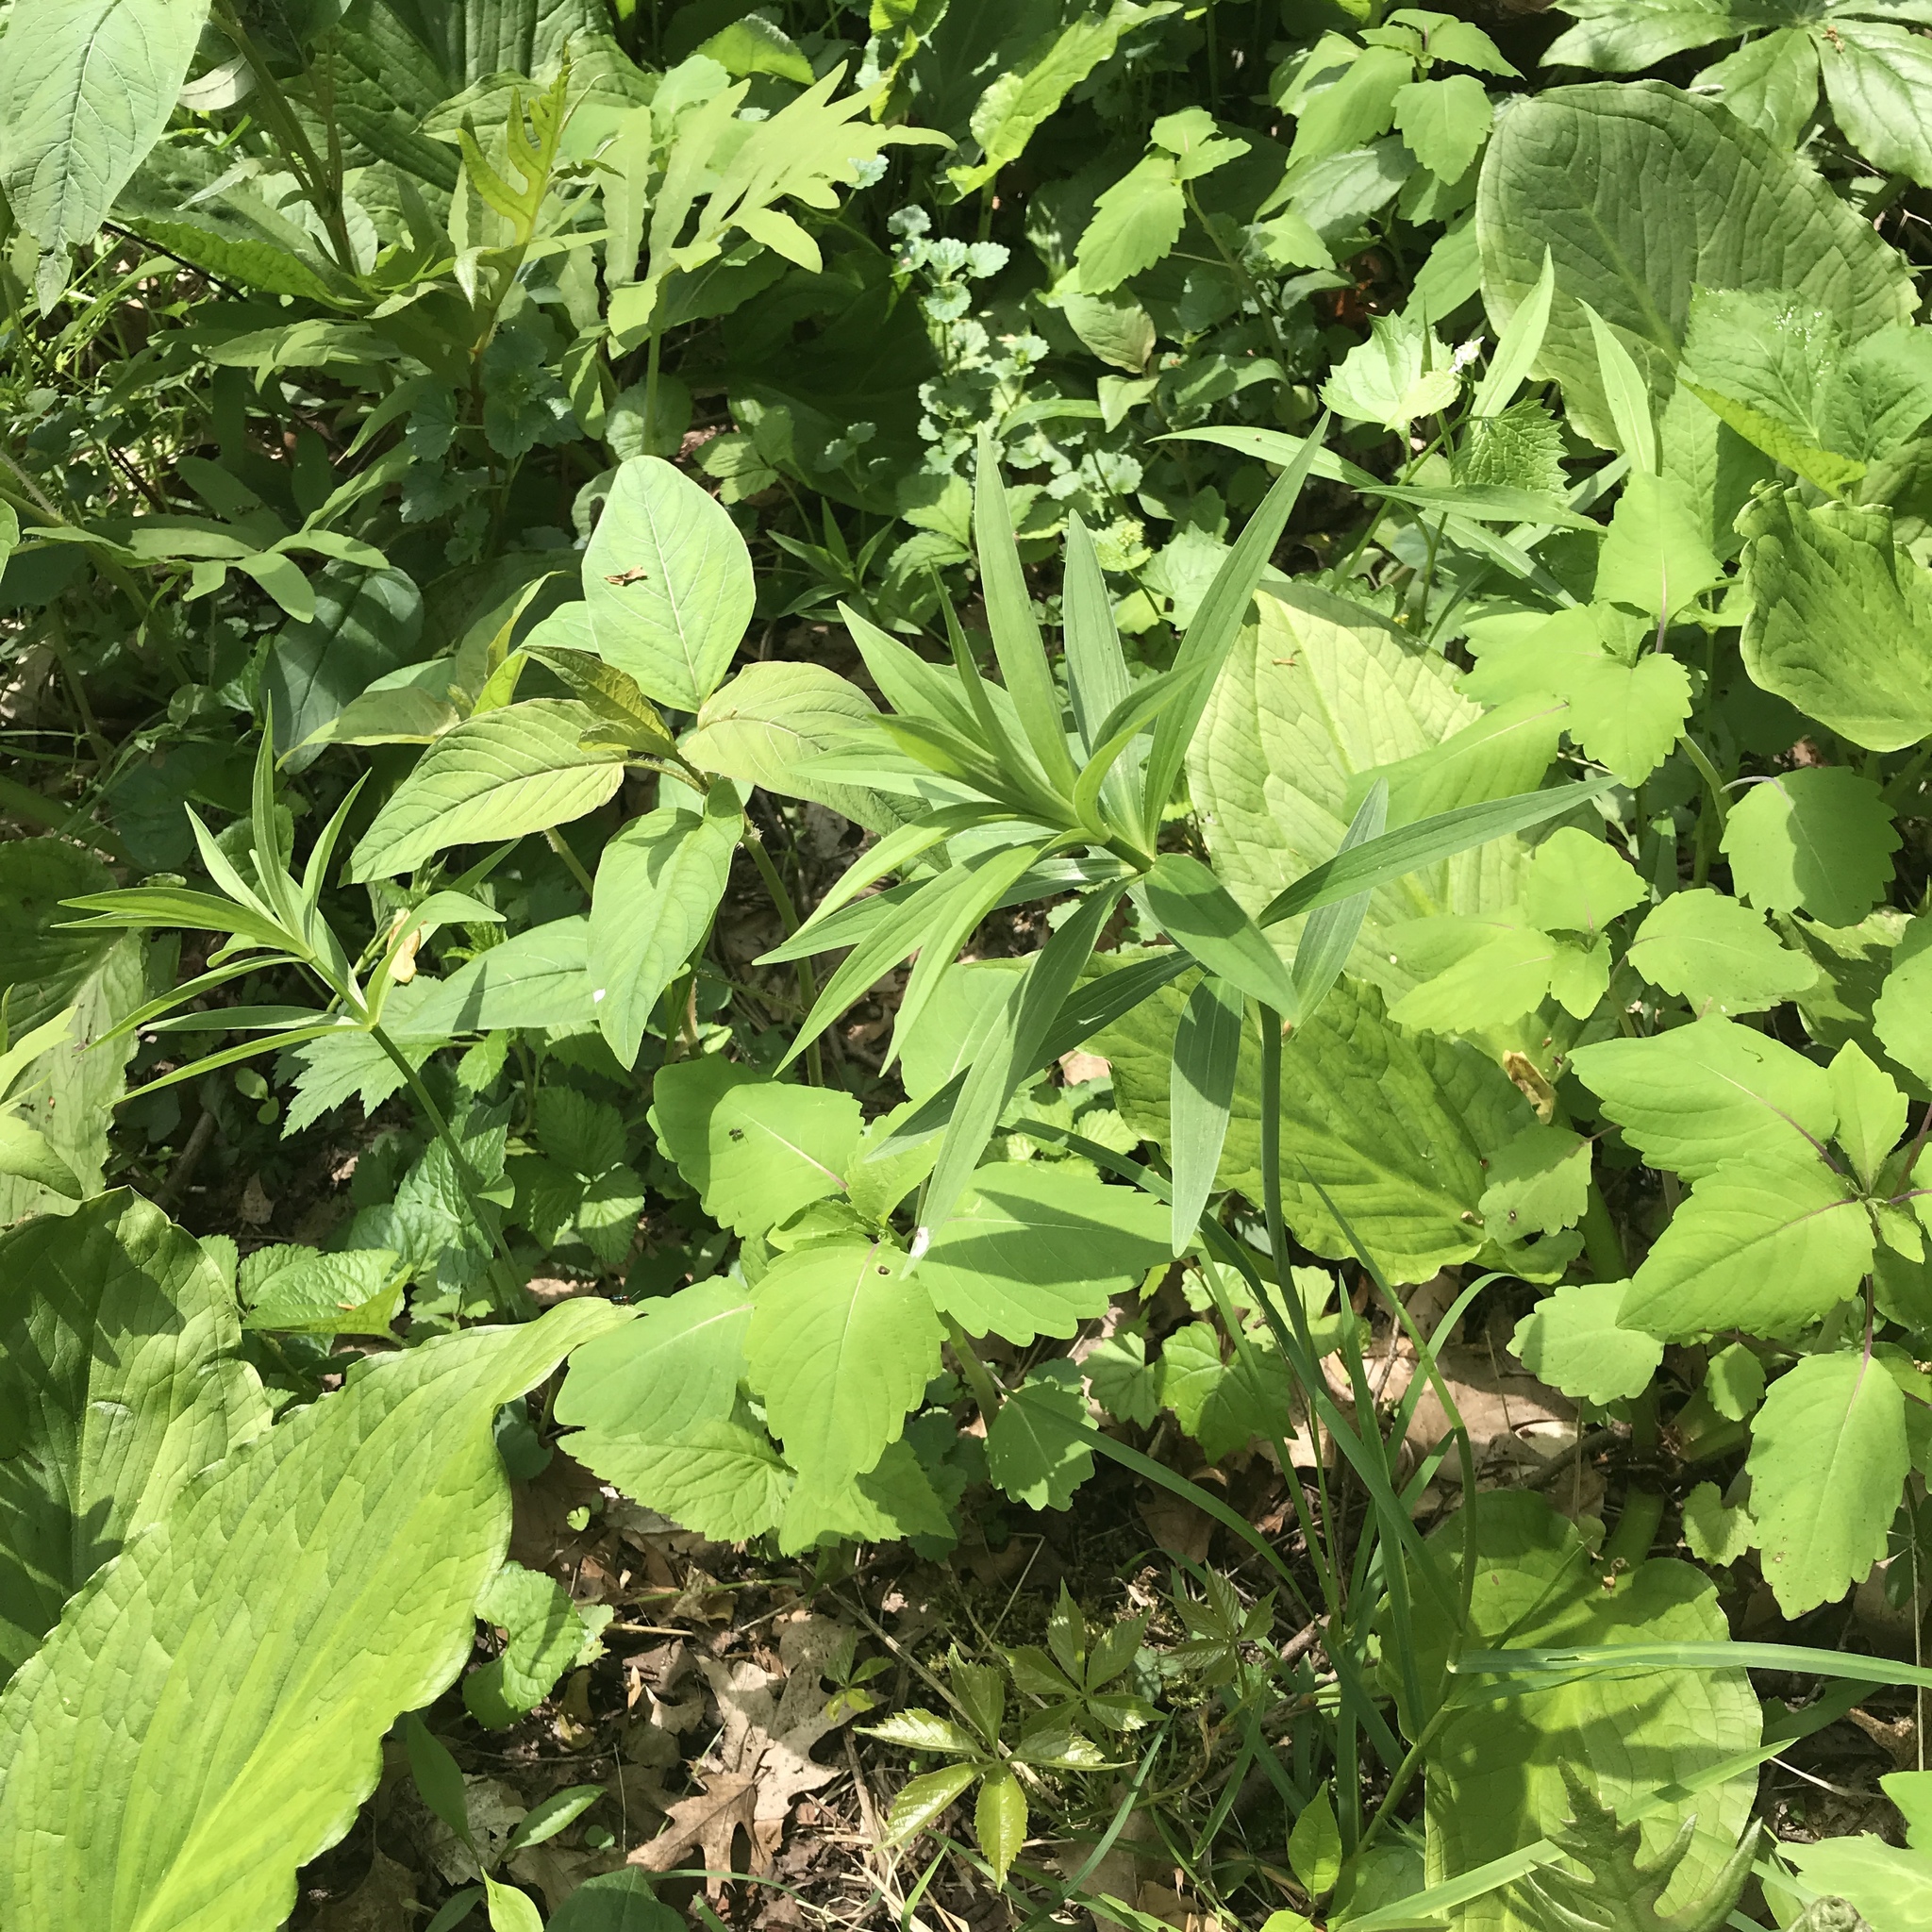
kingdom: Plantae
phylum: Tracheophyta
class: Liliopsida
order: Liliales
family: Liliaceae
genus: Lilium
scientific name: Lilium canadense
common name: Canada lily
